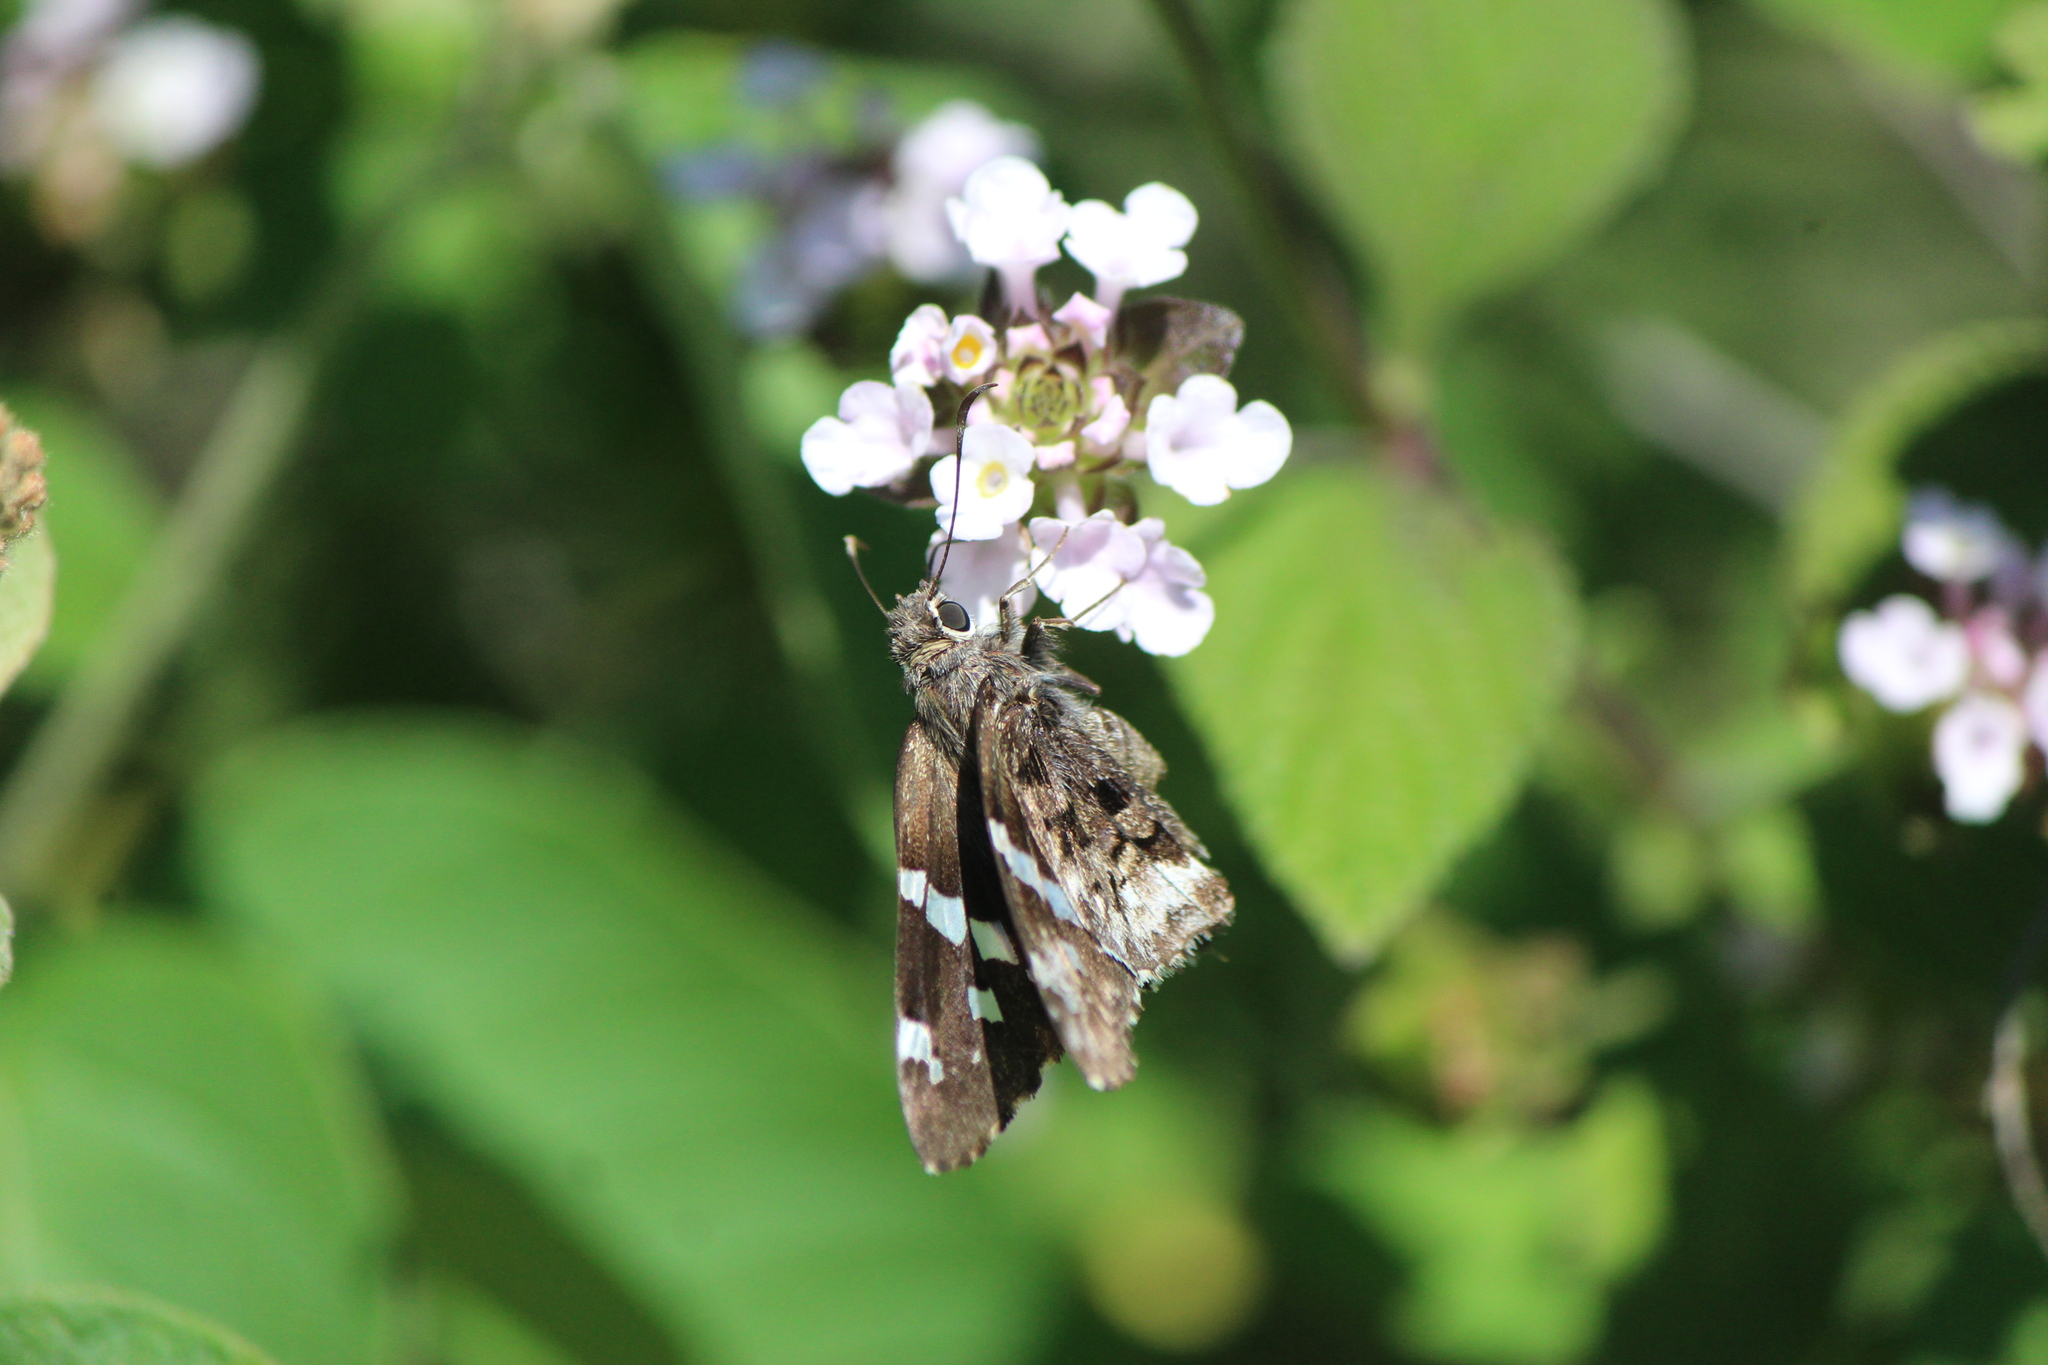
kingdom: Animalia
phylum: Arthropoda
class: Insecta
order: Lepidoptera
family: Hesperiidae
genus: Codatractus
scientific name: Codatractus arizonensis
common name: Arizona skipper
